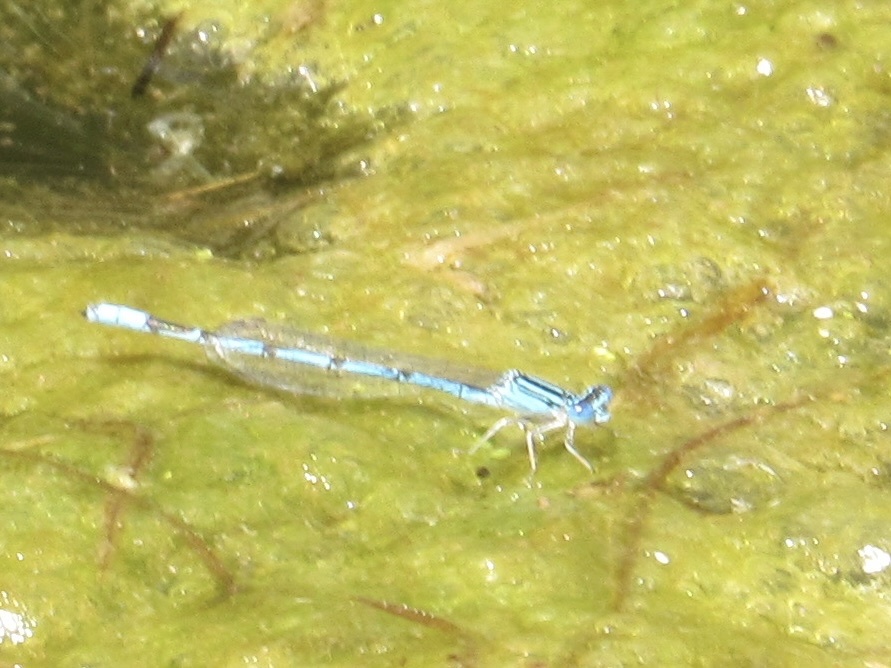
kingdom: Animalia
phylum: Arthropoda
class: Insecta
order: Odonata
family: Coenagrionidae
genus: Enallagma
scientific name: Enallagma basidens
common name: Double-striped bluet
